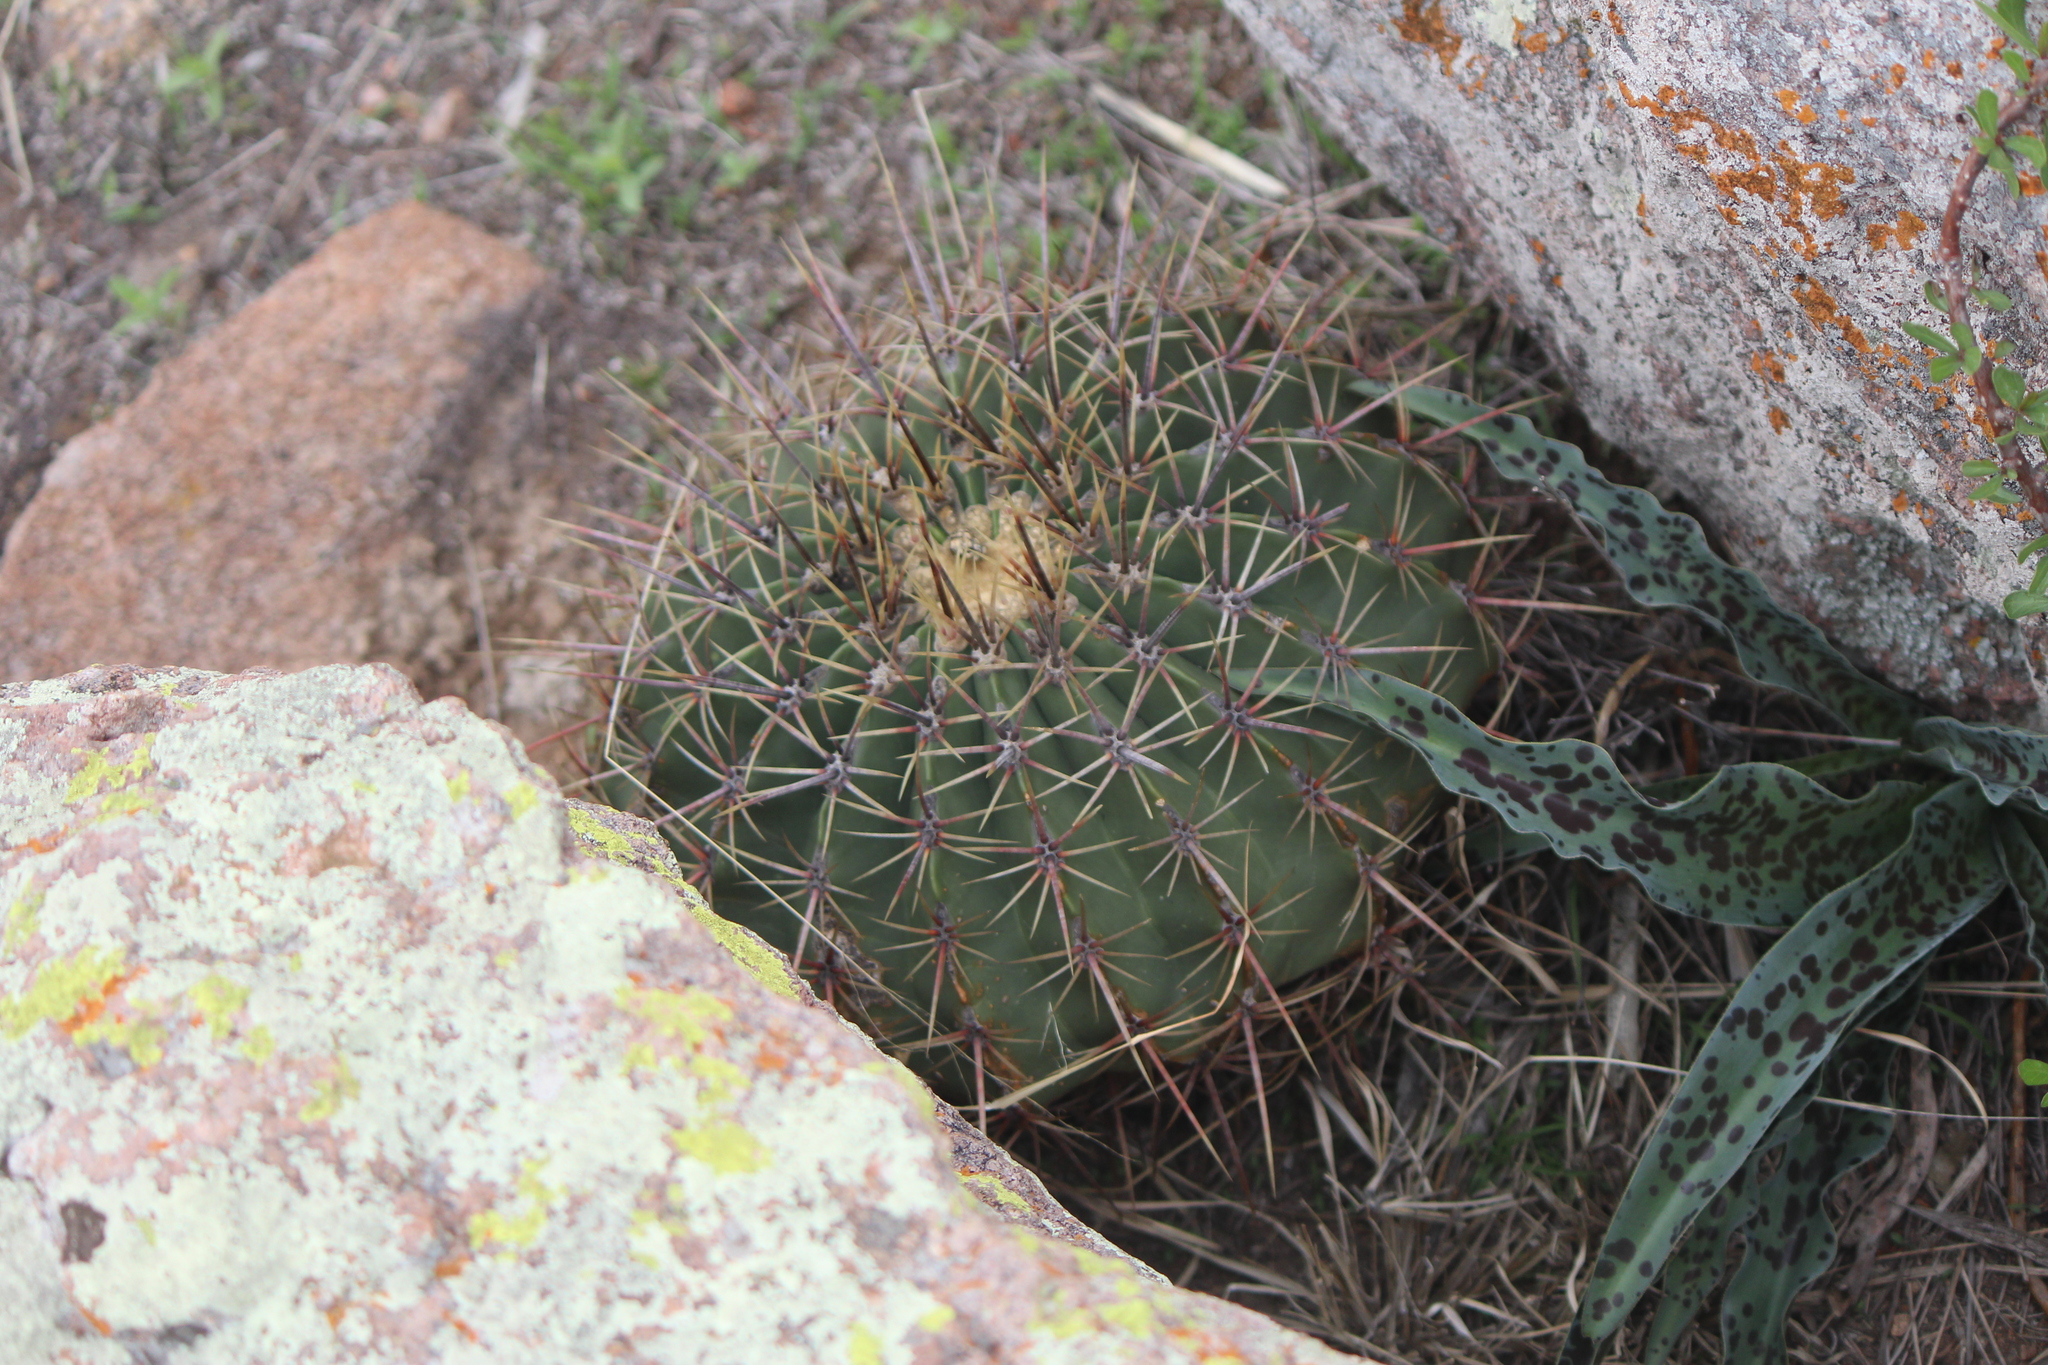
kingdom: Plantae
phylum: Tracheophyta
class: Magnoliopsida
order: Caryophyllales
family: Cactaceae
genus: Bisnaga
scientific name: Bisnaga histrix
